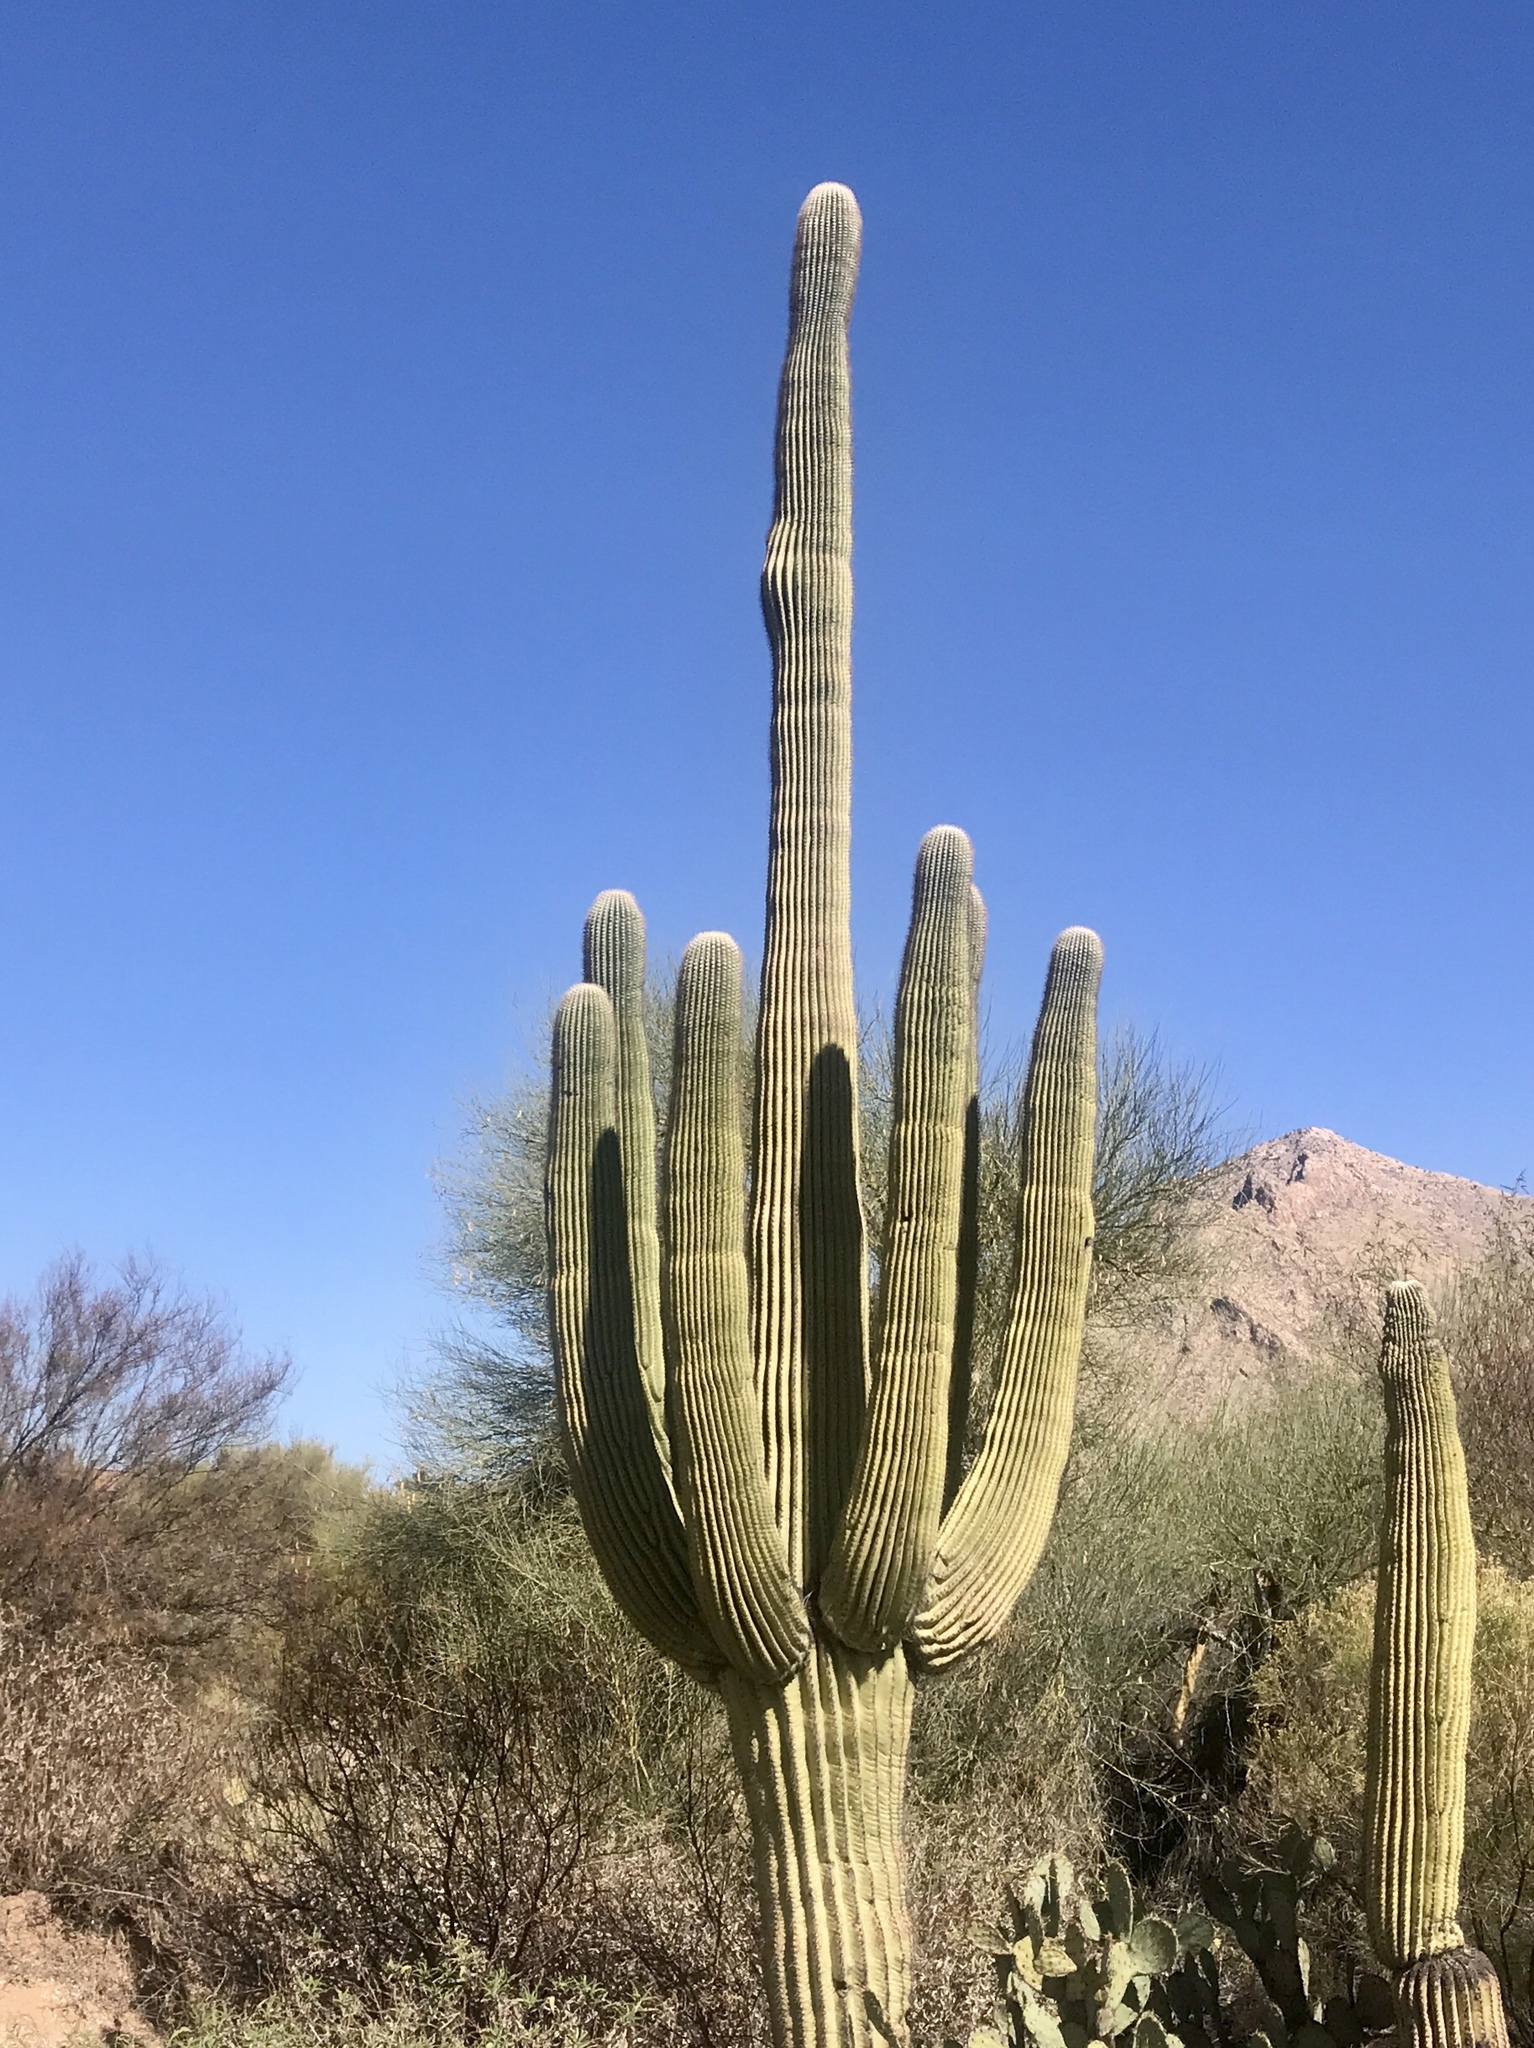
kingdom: Plantae
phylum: Tracheophyta
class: Magnoliopsida
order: Caryophyllales
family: Cactaceae
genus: Carnegiea
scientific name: Carnegiea gigantea
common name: Saguaro
